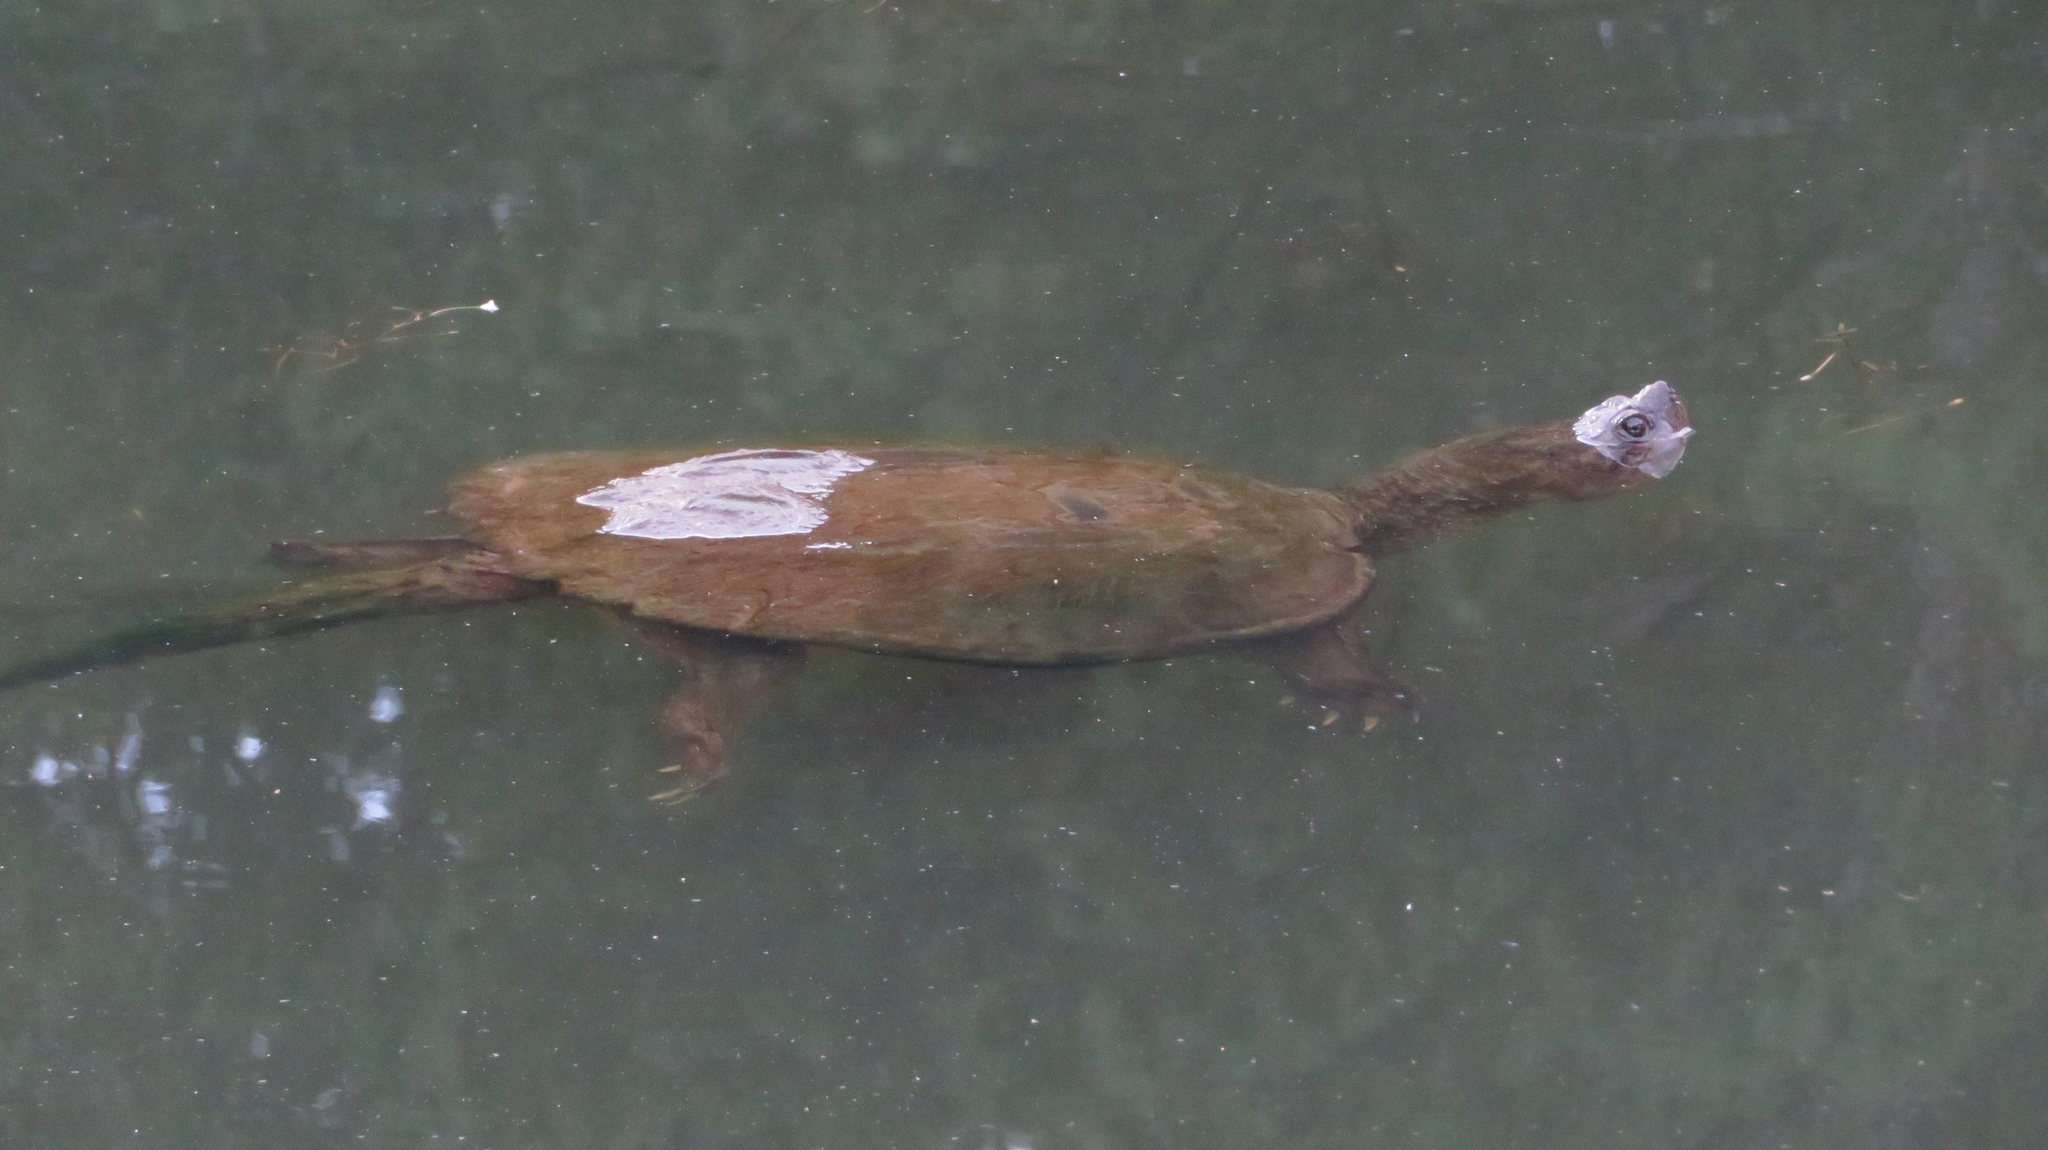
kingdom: Animalia
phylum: Chordata
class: Testudines
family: Chelydridae
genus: Chelydra
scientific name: Chelydra serpentina
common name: Common snapping turtle
